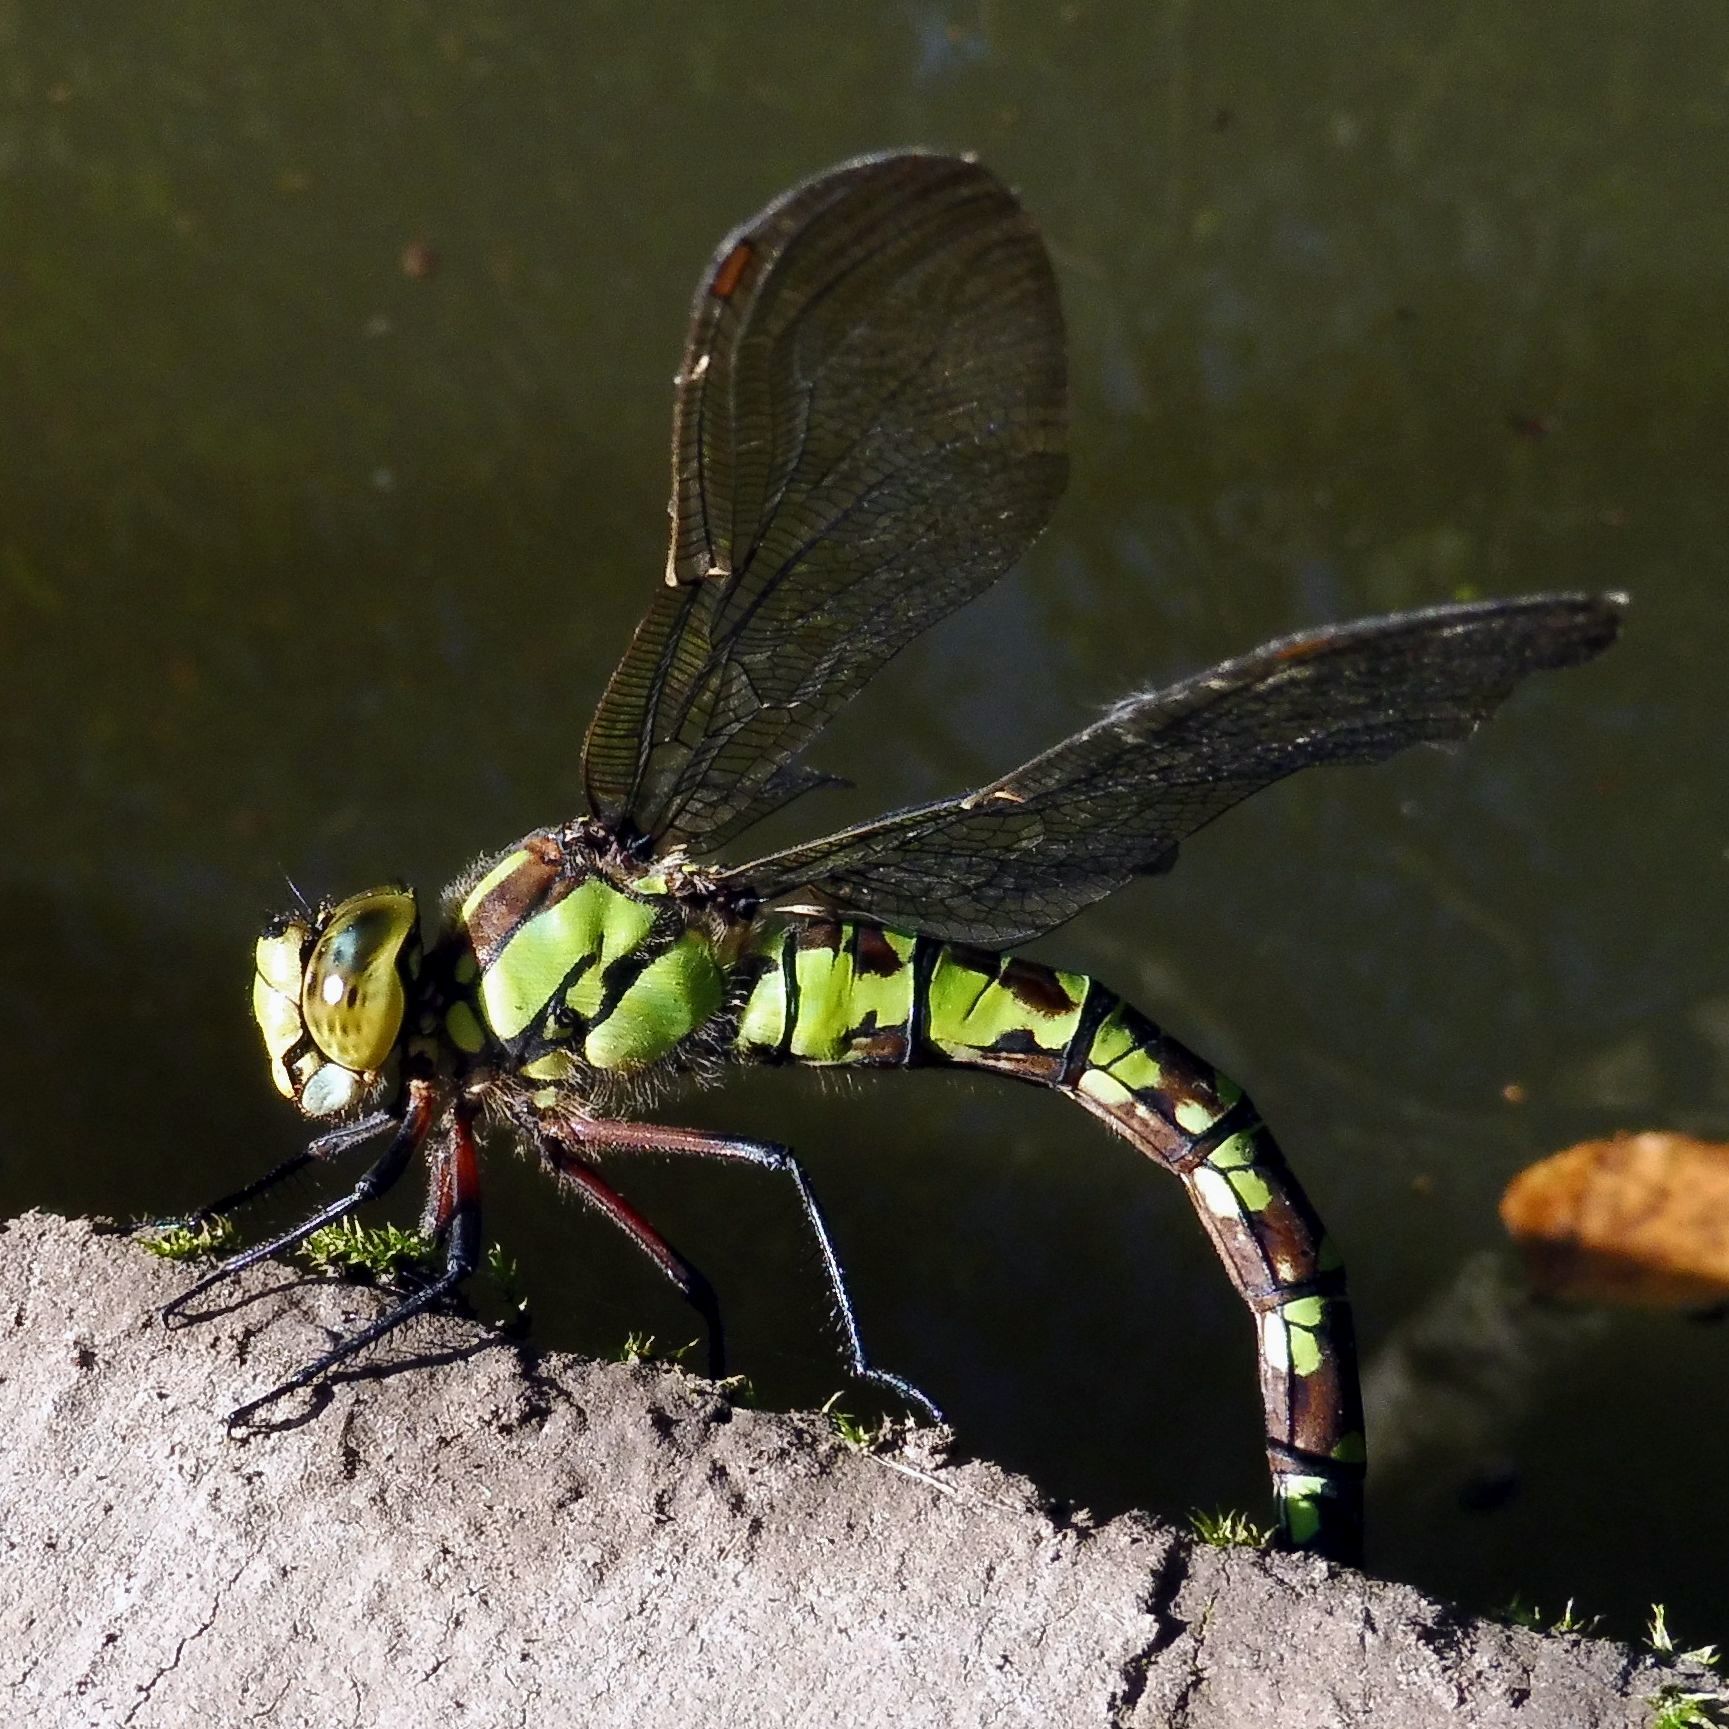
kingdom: Animalia
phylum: Arthropoda
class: Insecta
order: Odonata
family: Aeshnidae
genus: Aeshna
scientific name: Aeshna cyanea
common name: Southern hawker
